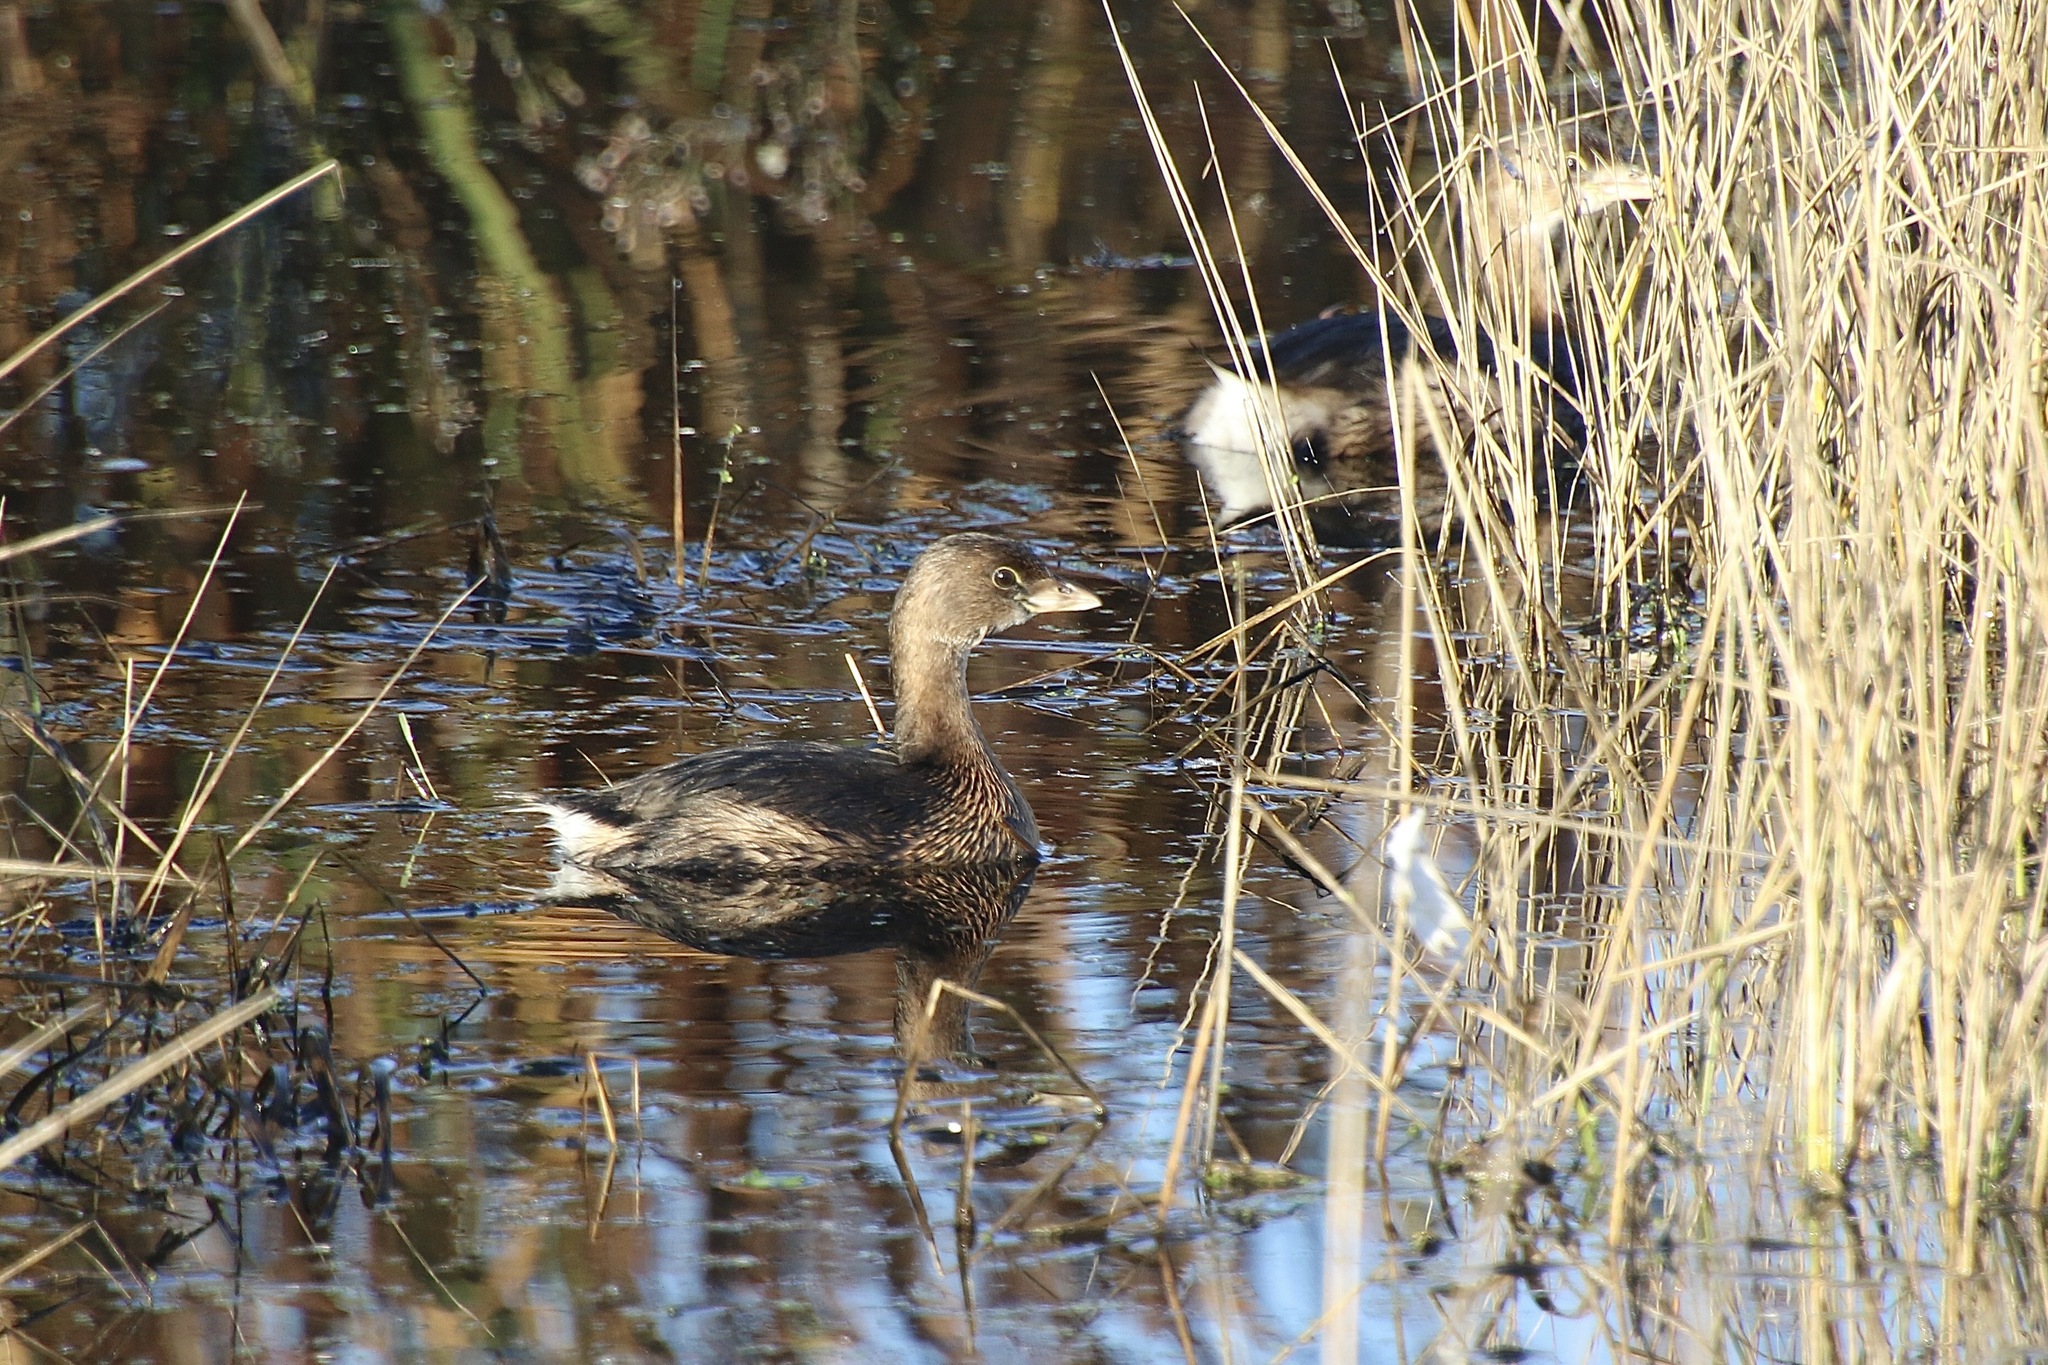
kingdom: Animalia
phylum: Chordata
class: Aves
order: Podicipediformes
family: Podicipedidae
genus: Podilymbus
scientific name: Podilymbus podiceps
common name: Pied-billed grebe
